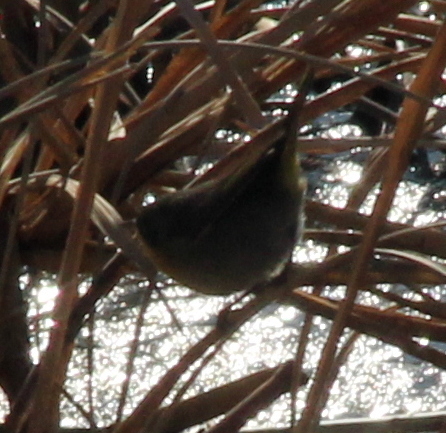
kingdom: Animalia
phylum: Chordata
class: Aves
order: Passeriformes
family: Parulidae
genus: Geothlypis
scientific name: Geothlypis trichas
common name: Common yellowthroat
